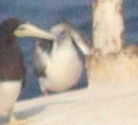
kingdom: Animalia
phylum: Chordata
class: Aves
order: Suliformes
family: Sulidae
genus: Sula
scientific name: Sula sula
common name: Red-footed booby
